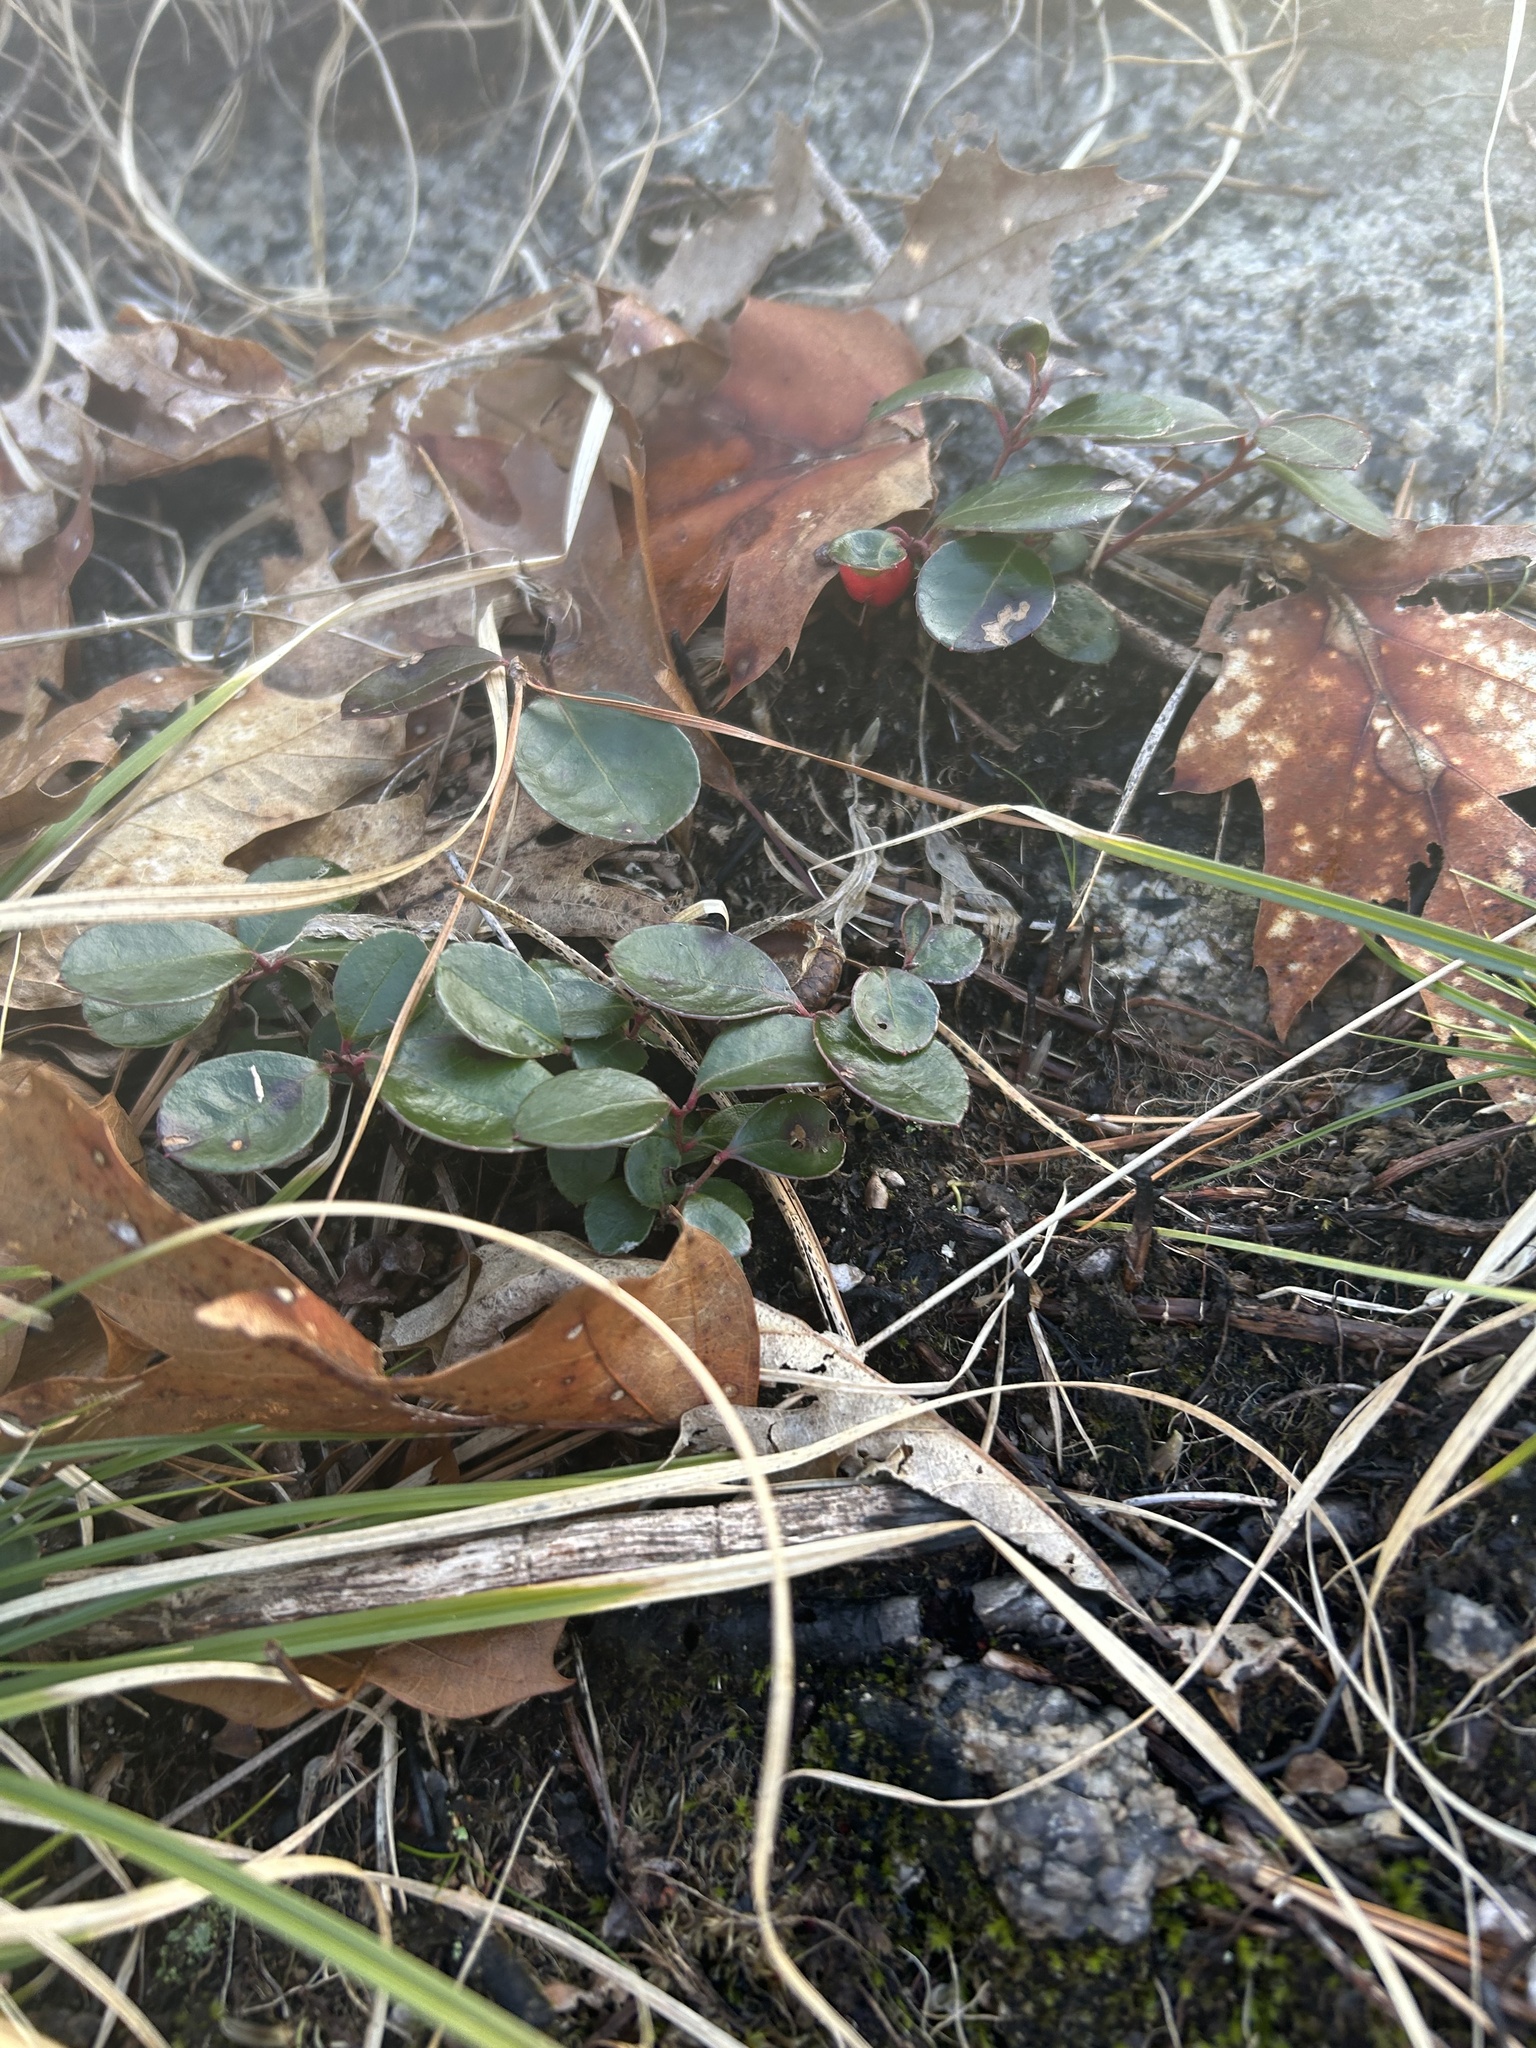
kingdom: Plantae
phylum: Tracheophyta
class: Magnoliopsida
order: Ericales
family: Ericaceae
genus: Gaultheria
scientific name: Gaultheria procumbens
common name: Checkerberry
